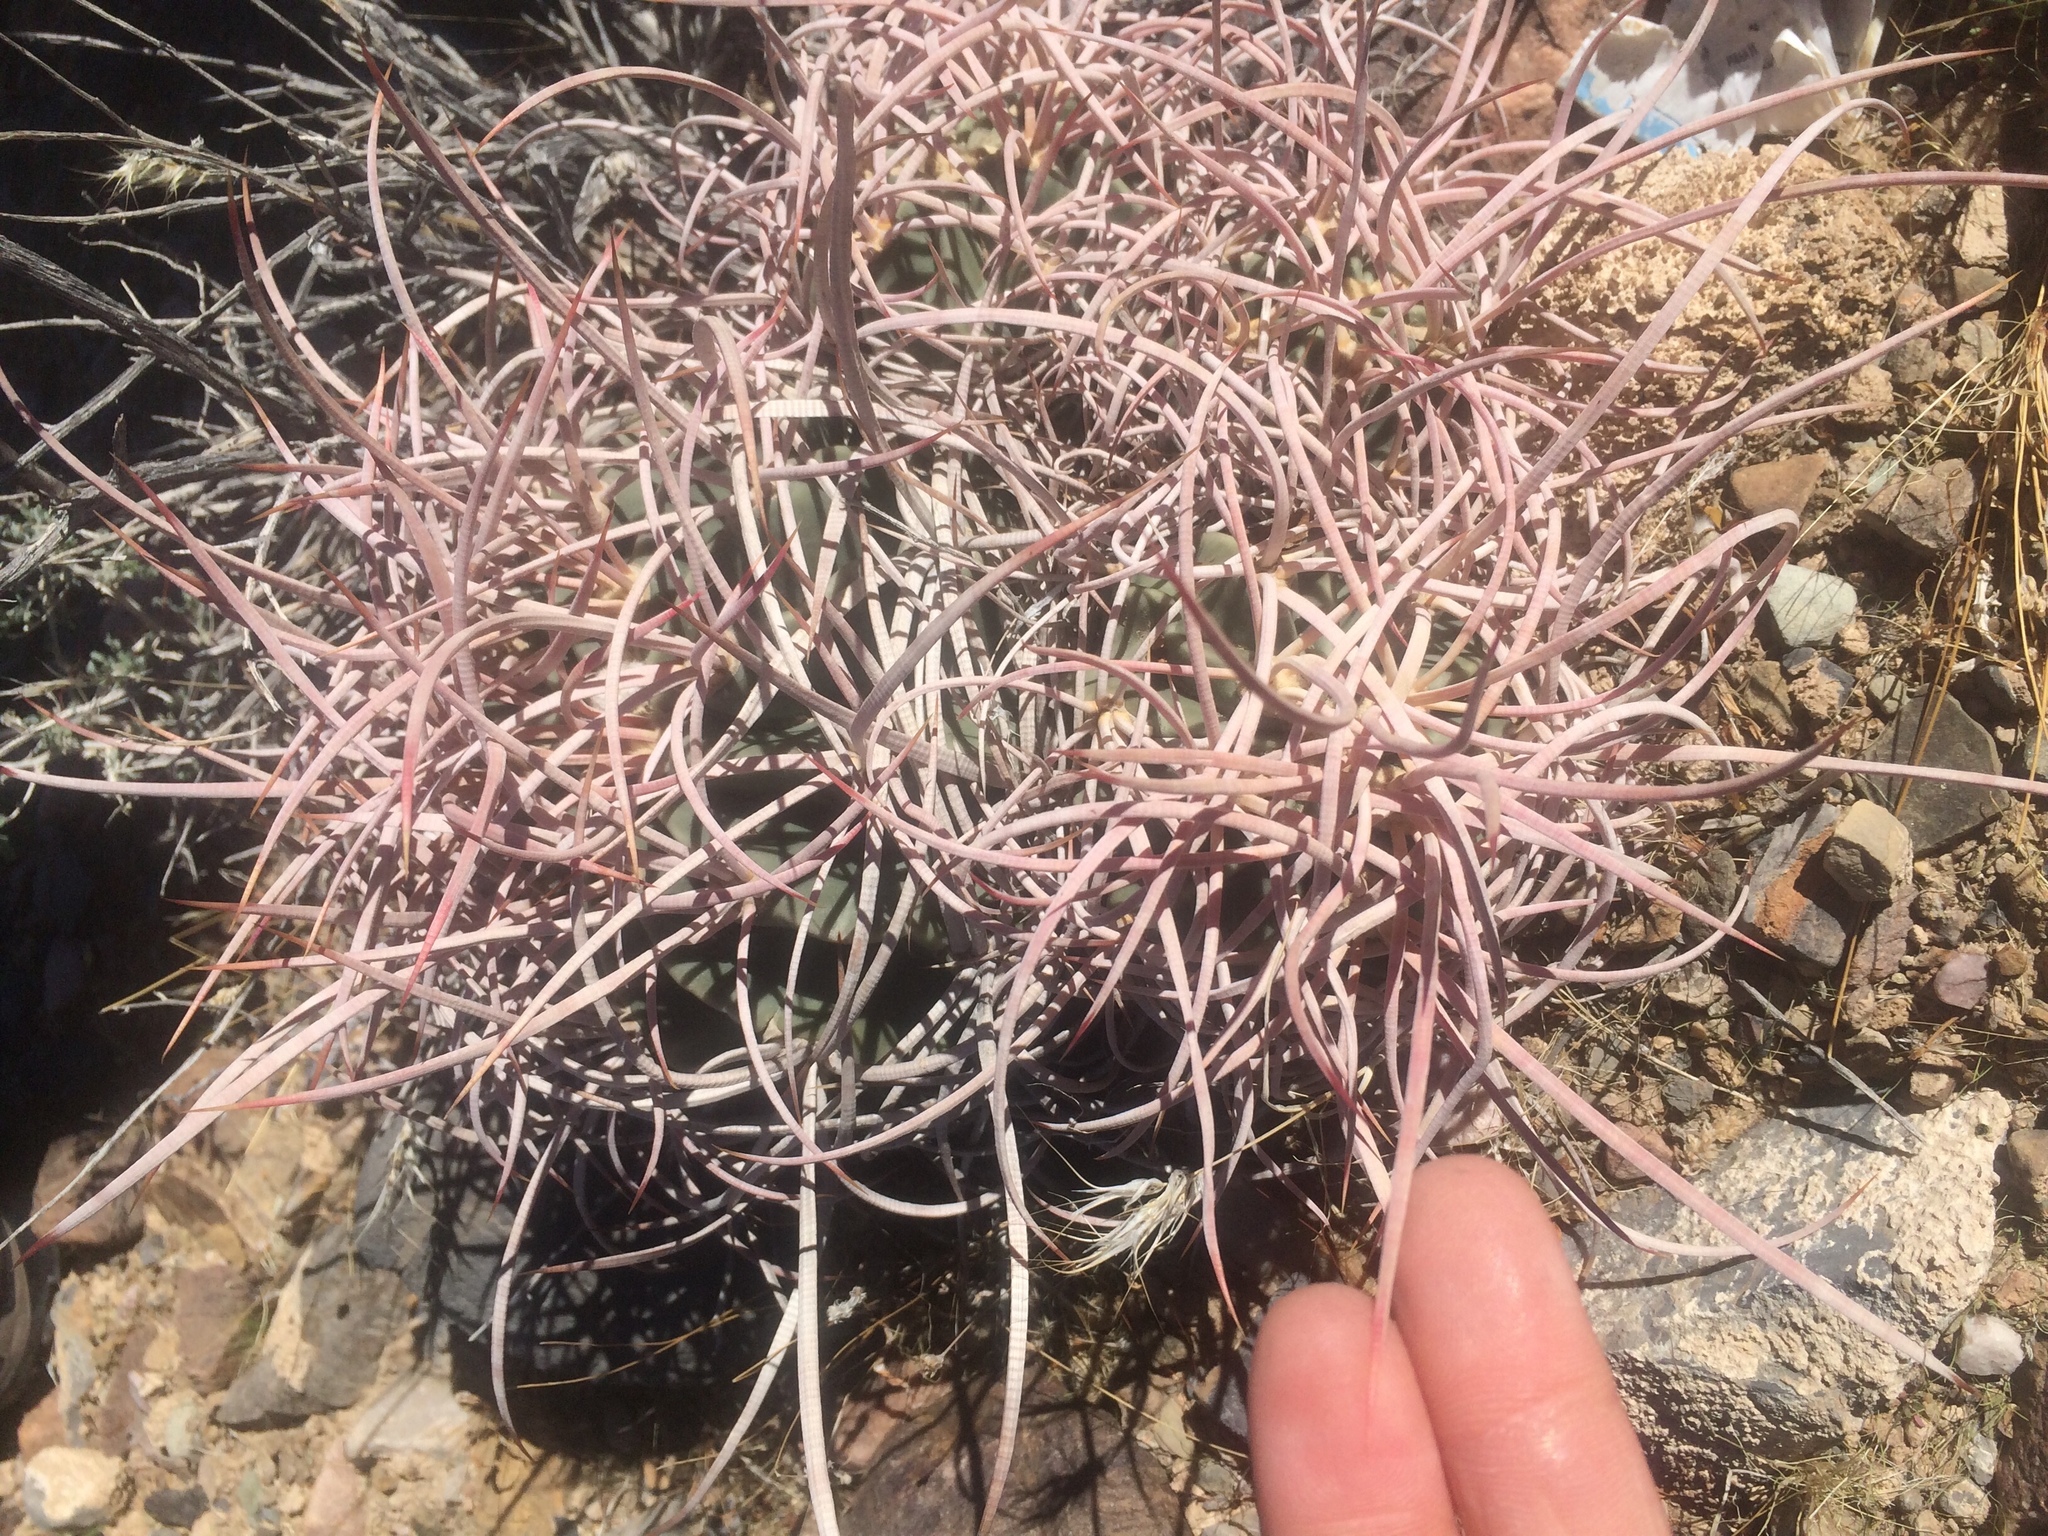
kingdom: Plantae
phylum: Tracheophyta
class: Magnoliopsida
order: Caryophyllales
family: Cactaceae
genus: Echinocactus
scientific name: Echinocactus polycephalus
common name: Cottontop cactus
